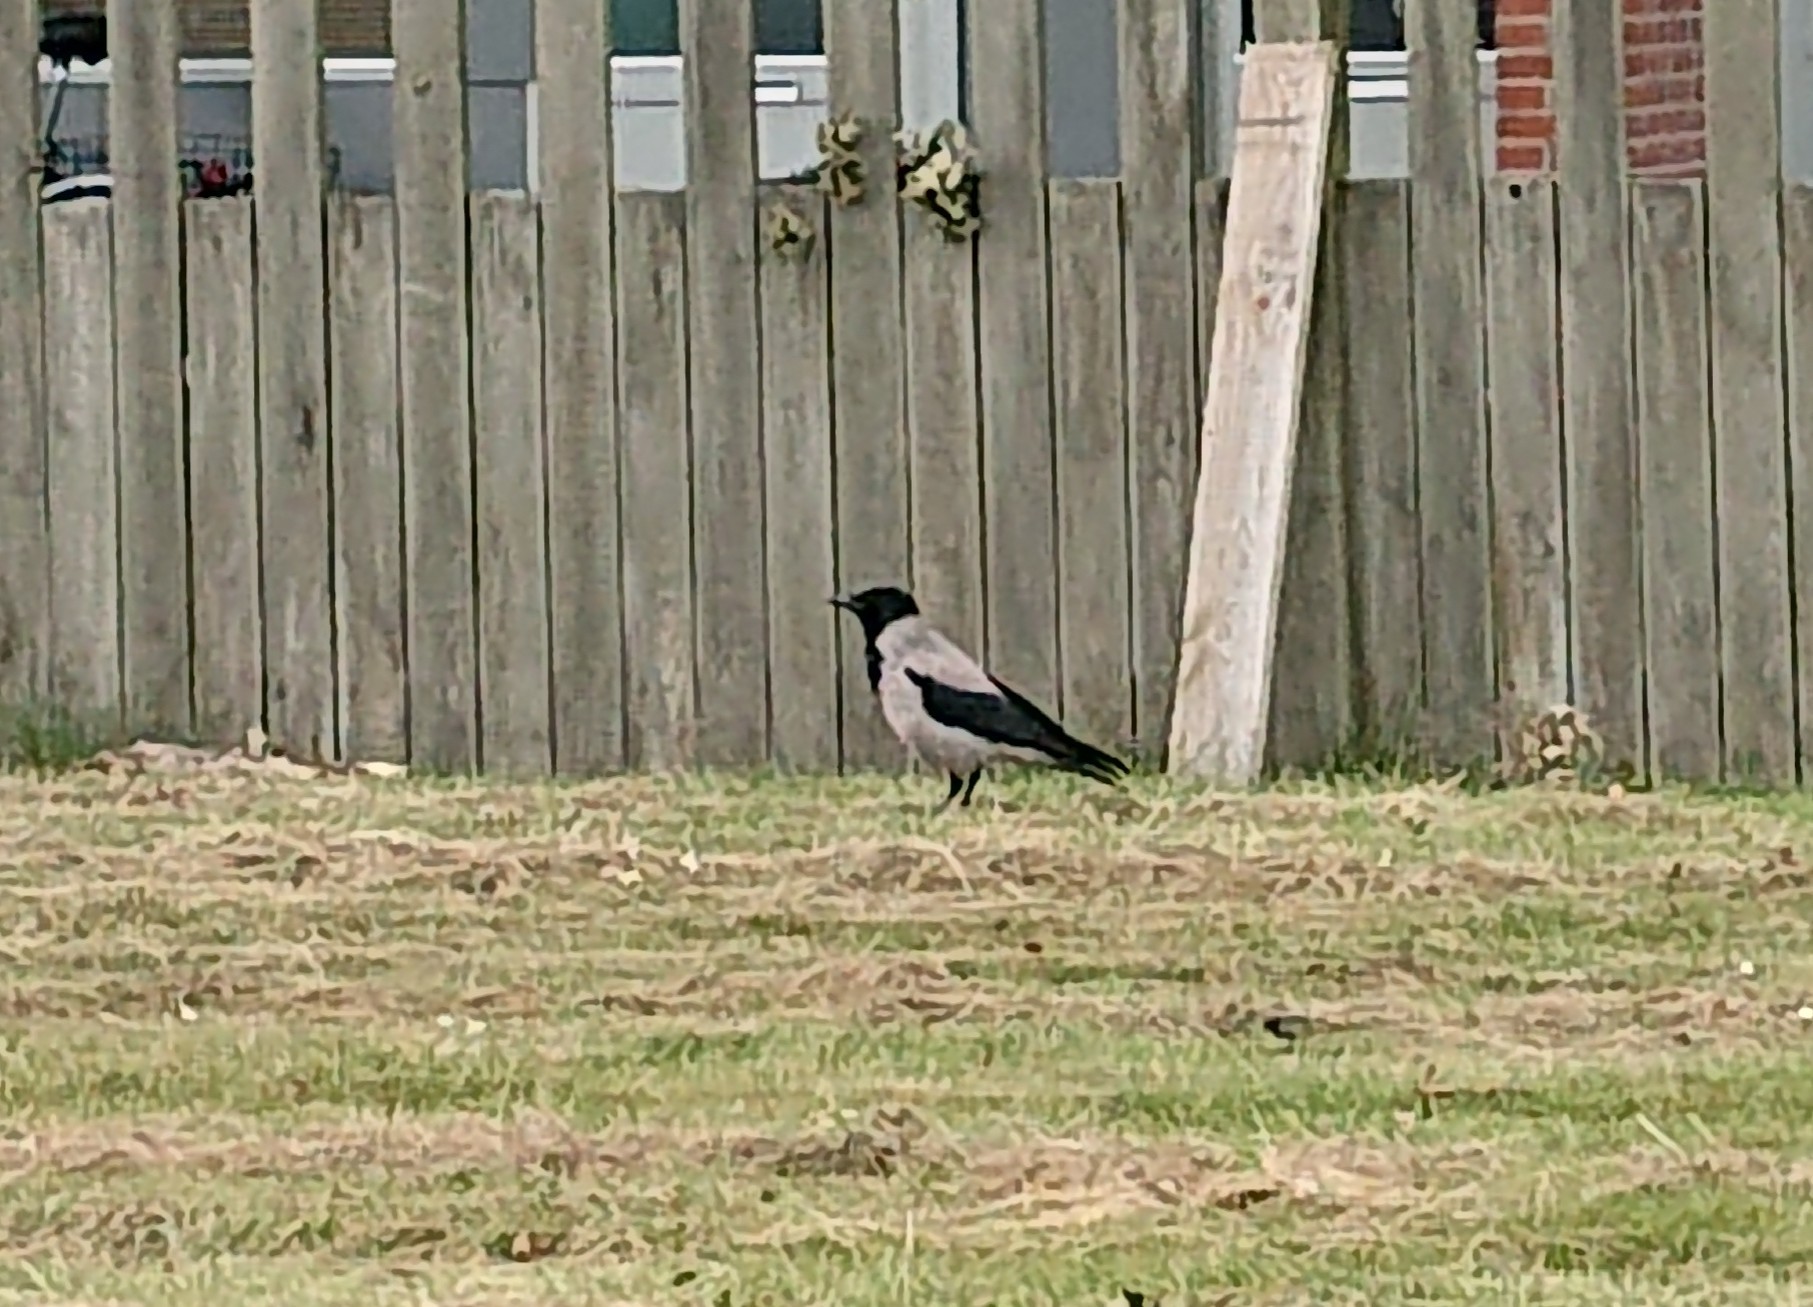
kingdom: Animalia
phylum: Chordata
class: Aves
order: Passeriformes
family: Corvidae
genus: Corvus
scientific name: Corvus cornix
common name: Hooded crow
